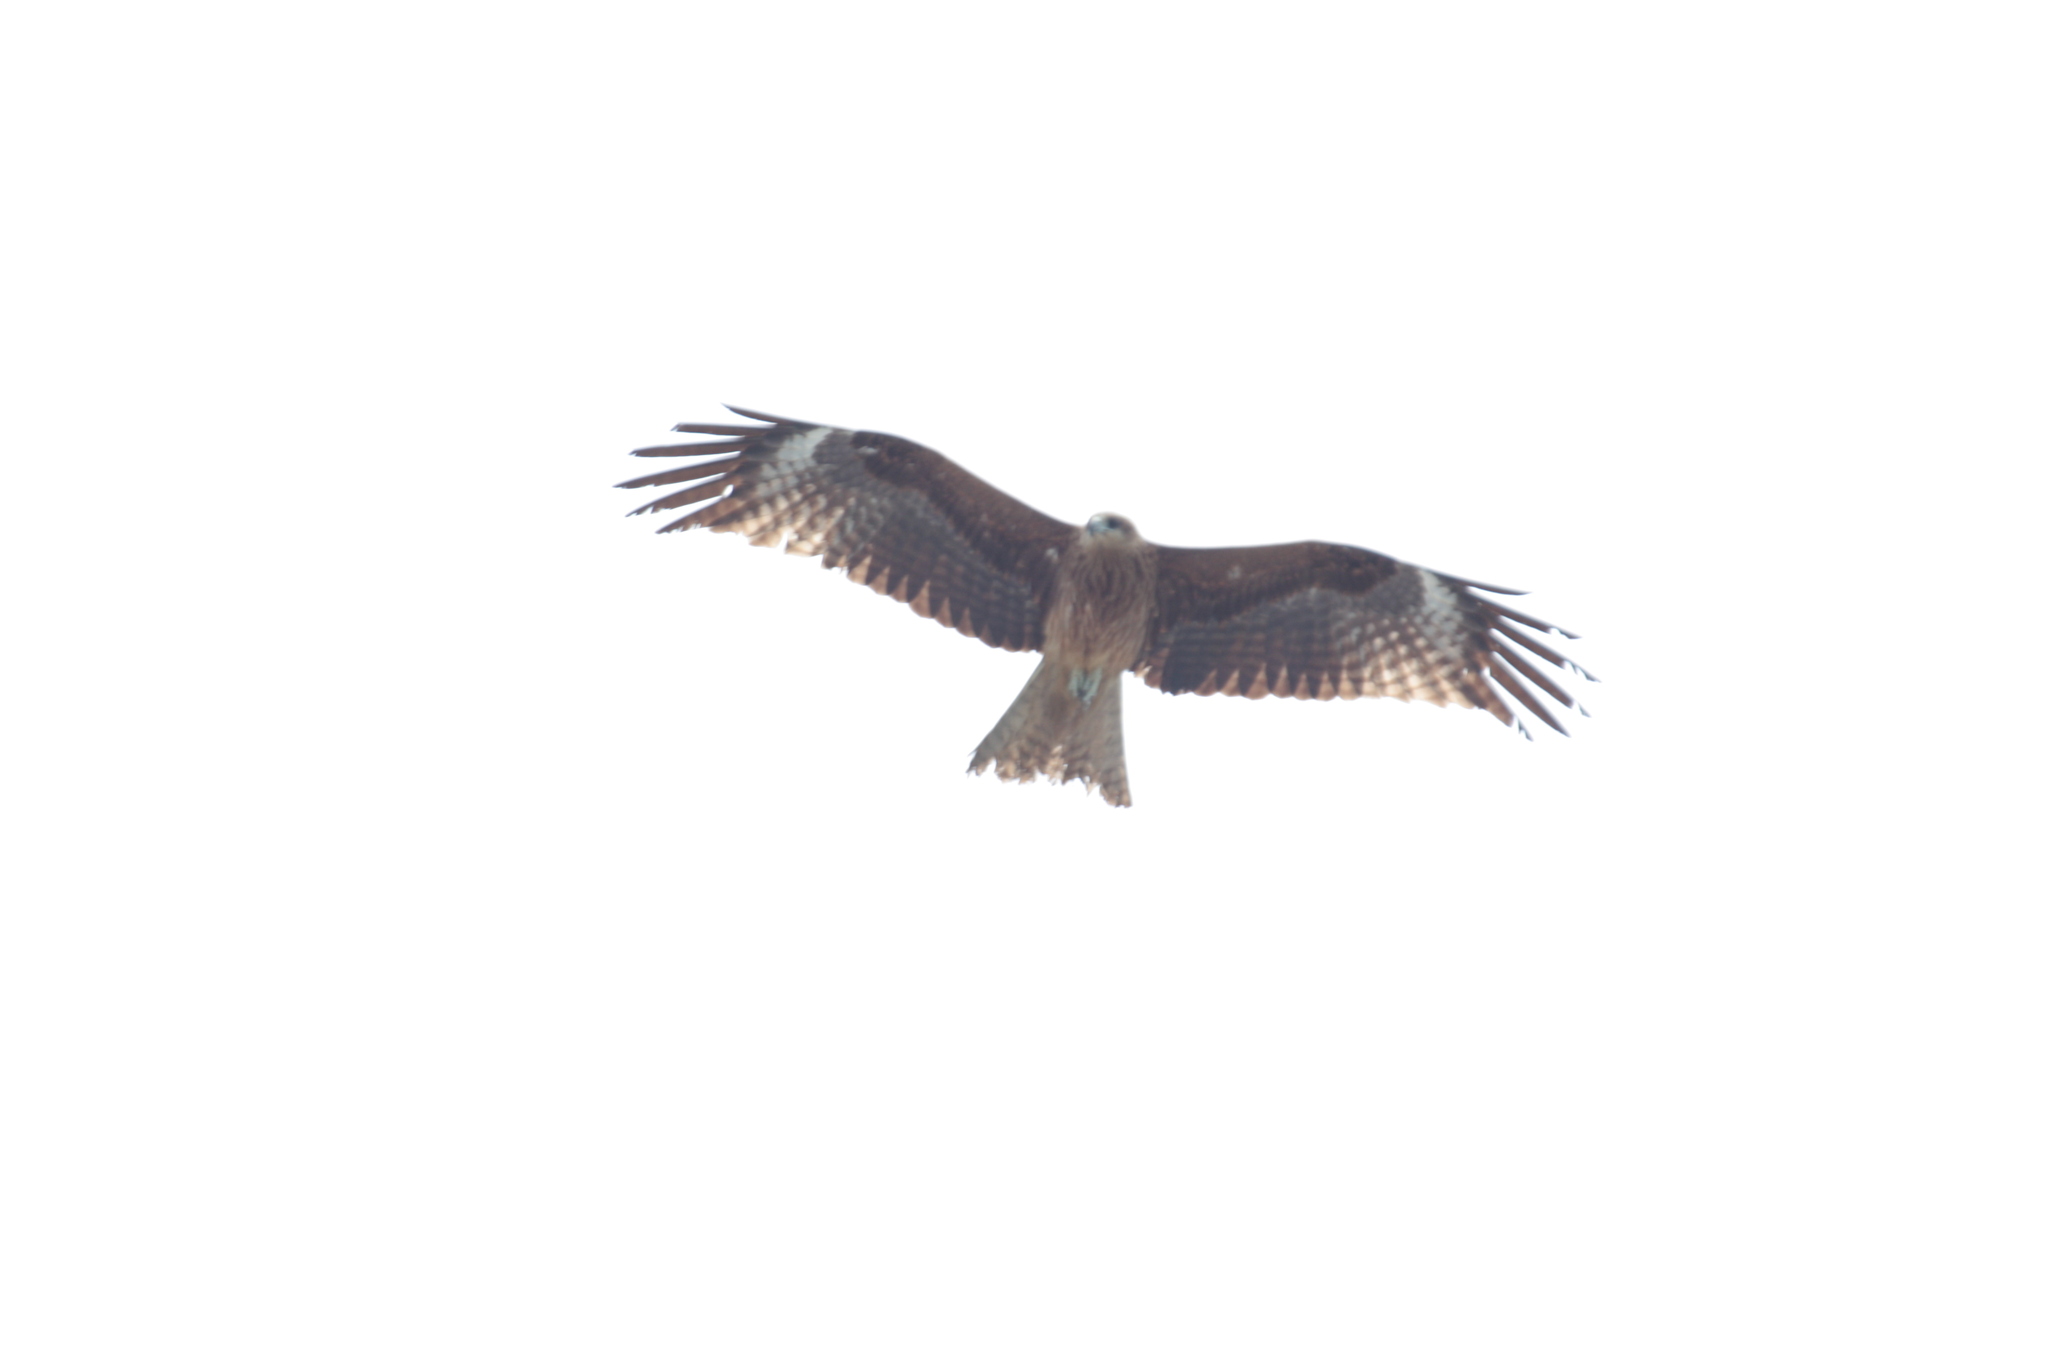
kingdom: Animalia
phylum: Chordata
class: Aves
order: Accipitriformes
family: Accipitridae
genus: Milvus
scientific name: Milvus migrans
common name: Black kite
